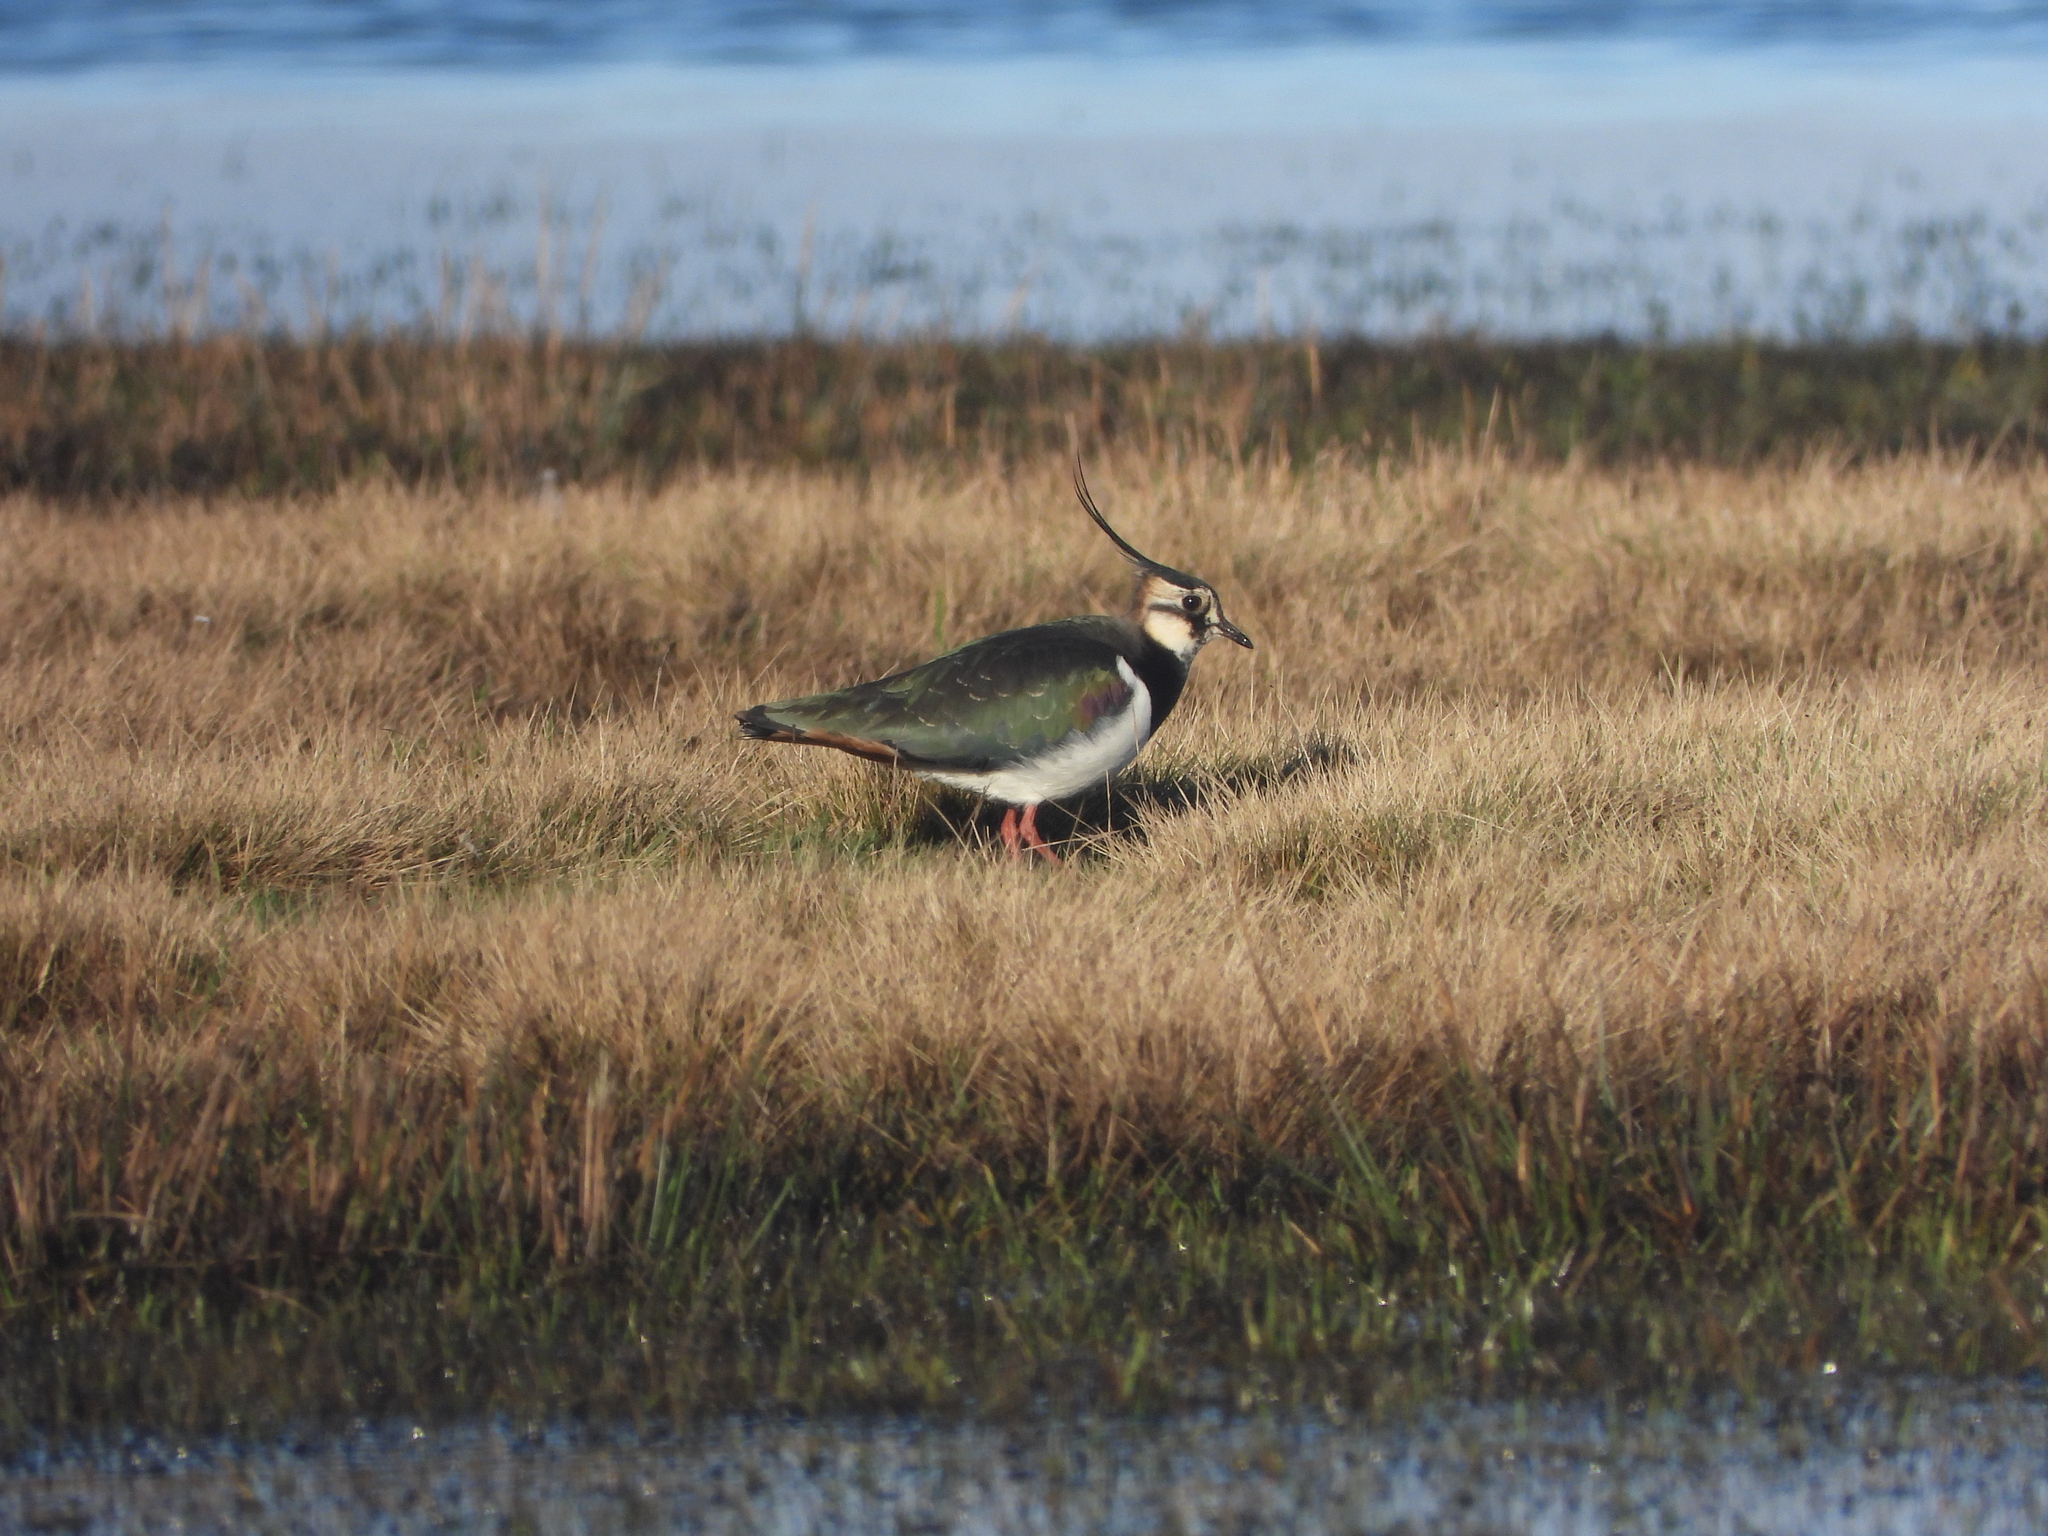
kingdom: Animalia
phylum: Chordata
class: Aves
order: Charadriiformes
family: Charadriidae
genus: Vanellus
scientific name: Vanellus vanellus
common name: Northern lapwing
